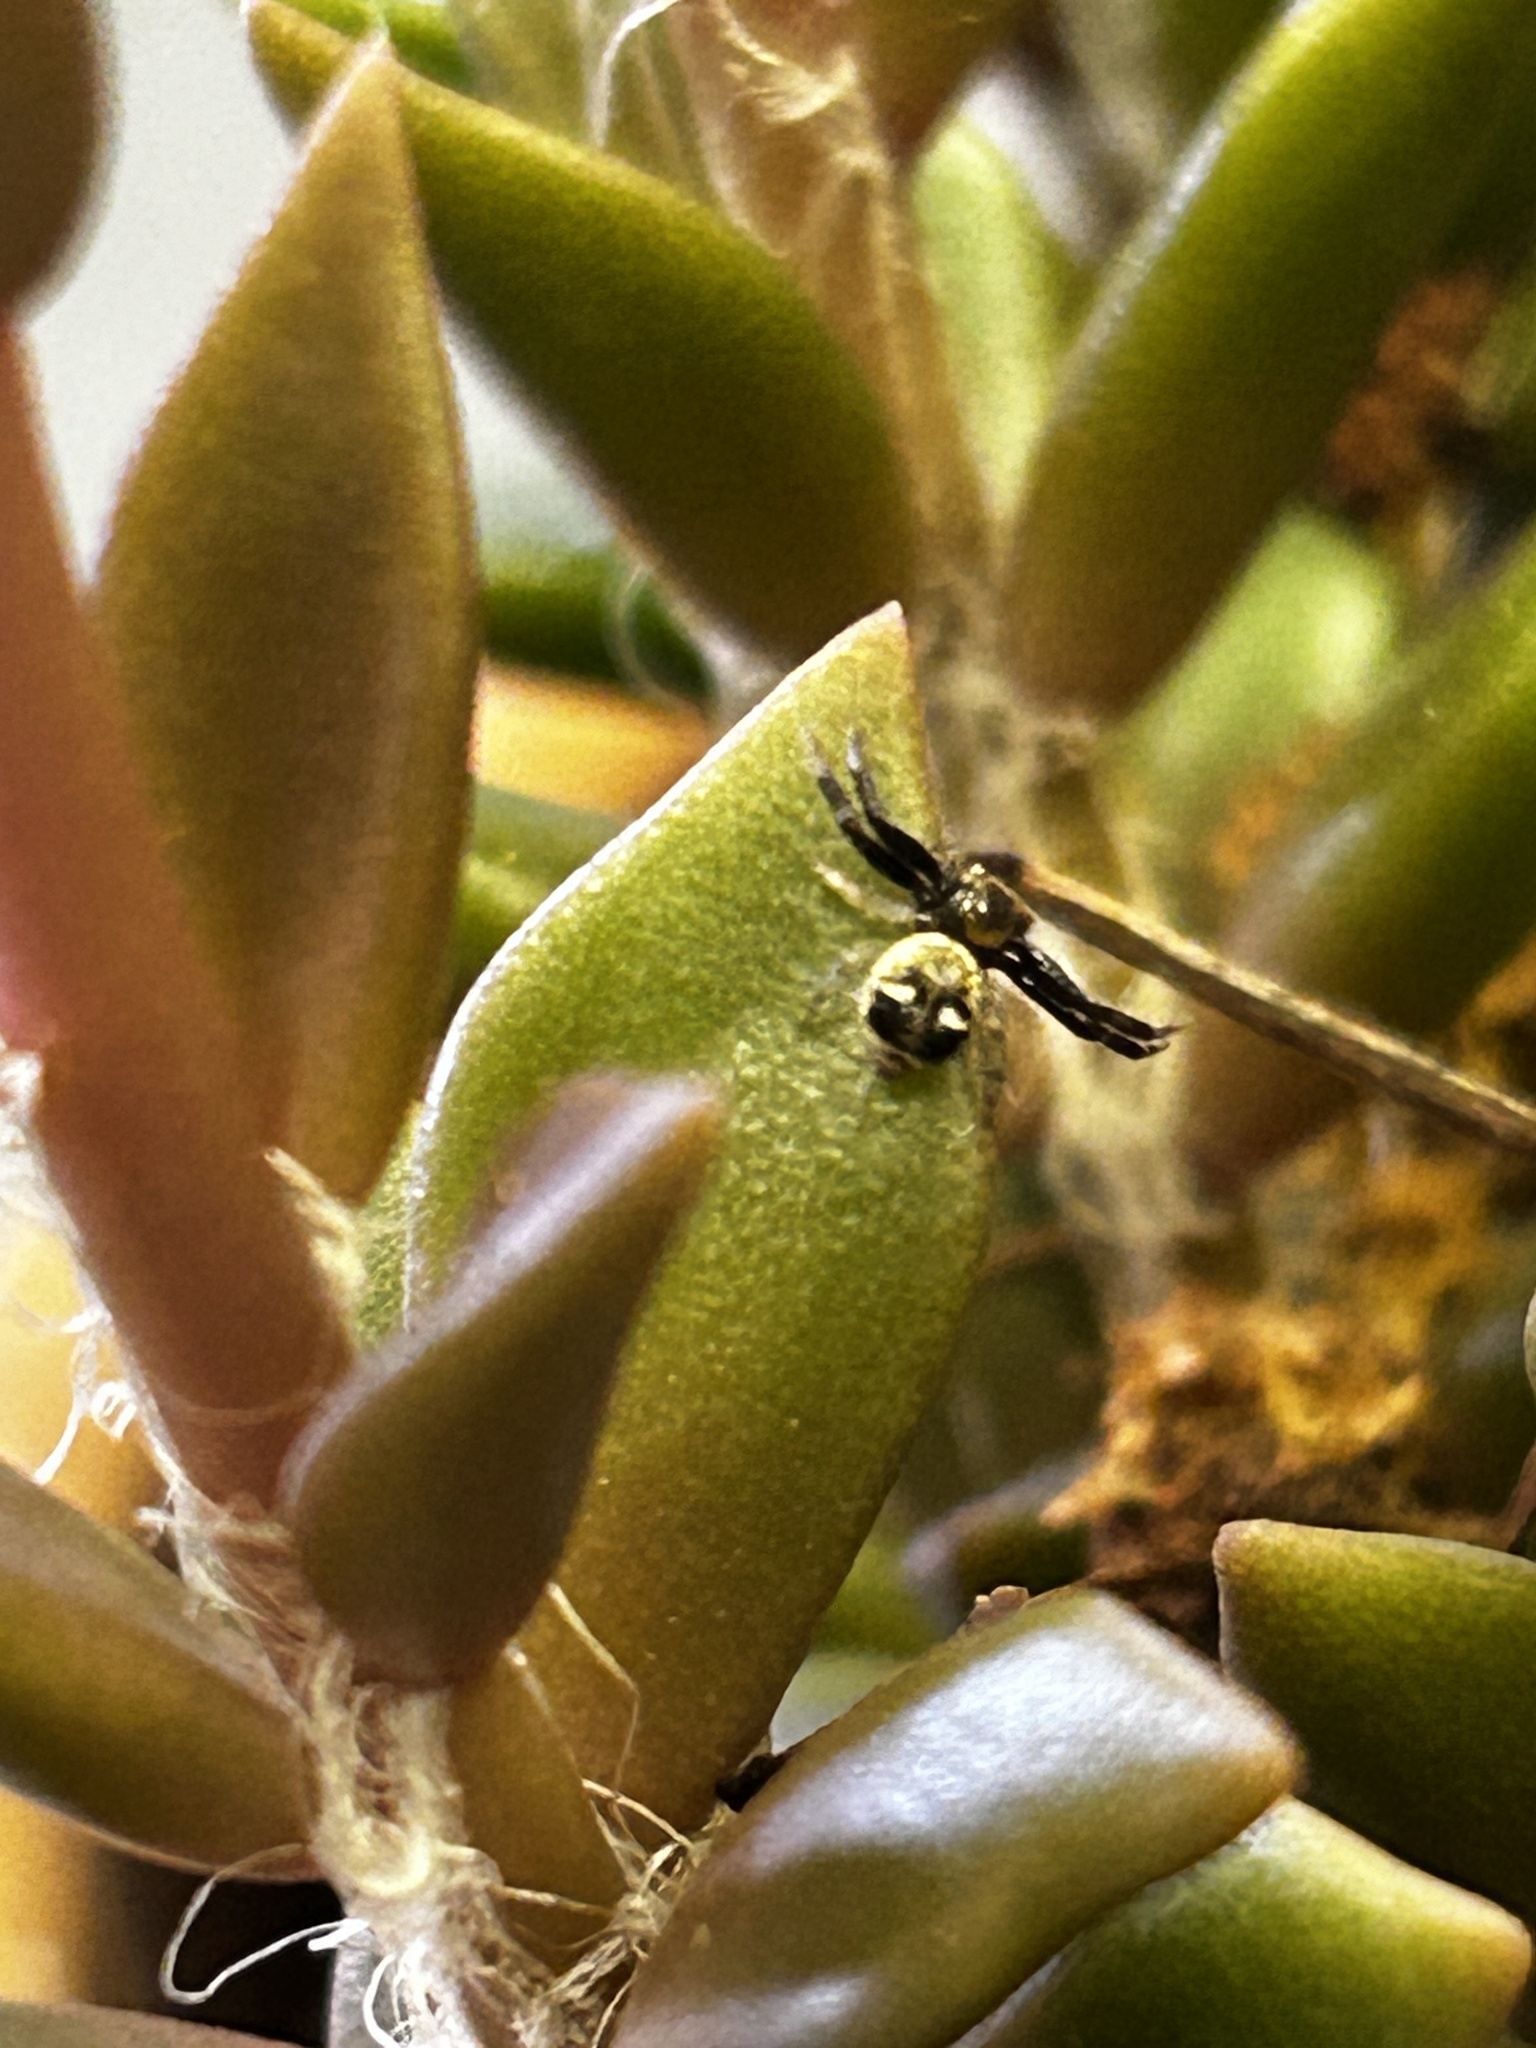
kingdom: Animalia
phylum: Arthropoda
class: Arachnida
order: Araneae
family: Thomisidae
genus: Synema
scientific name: Synema imitatrix
